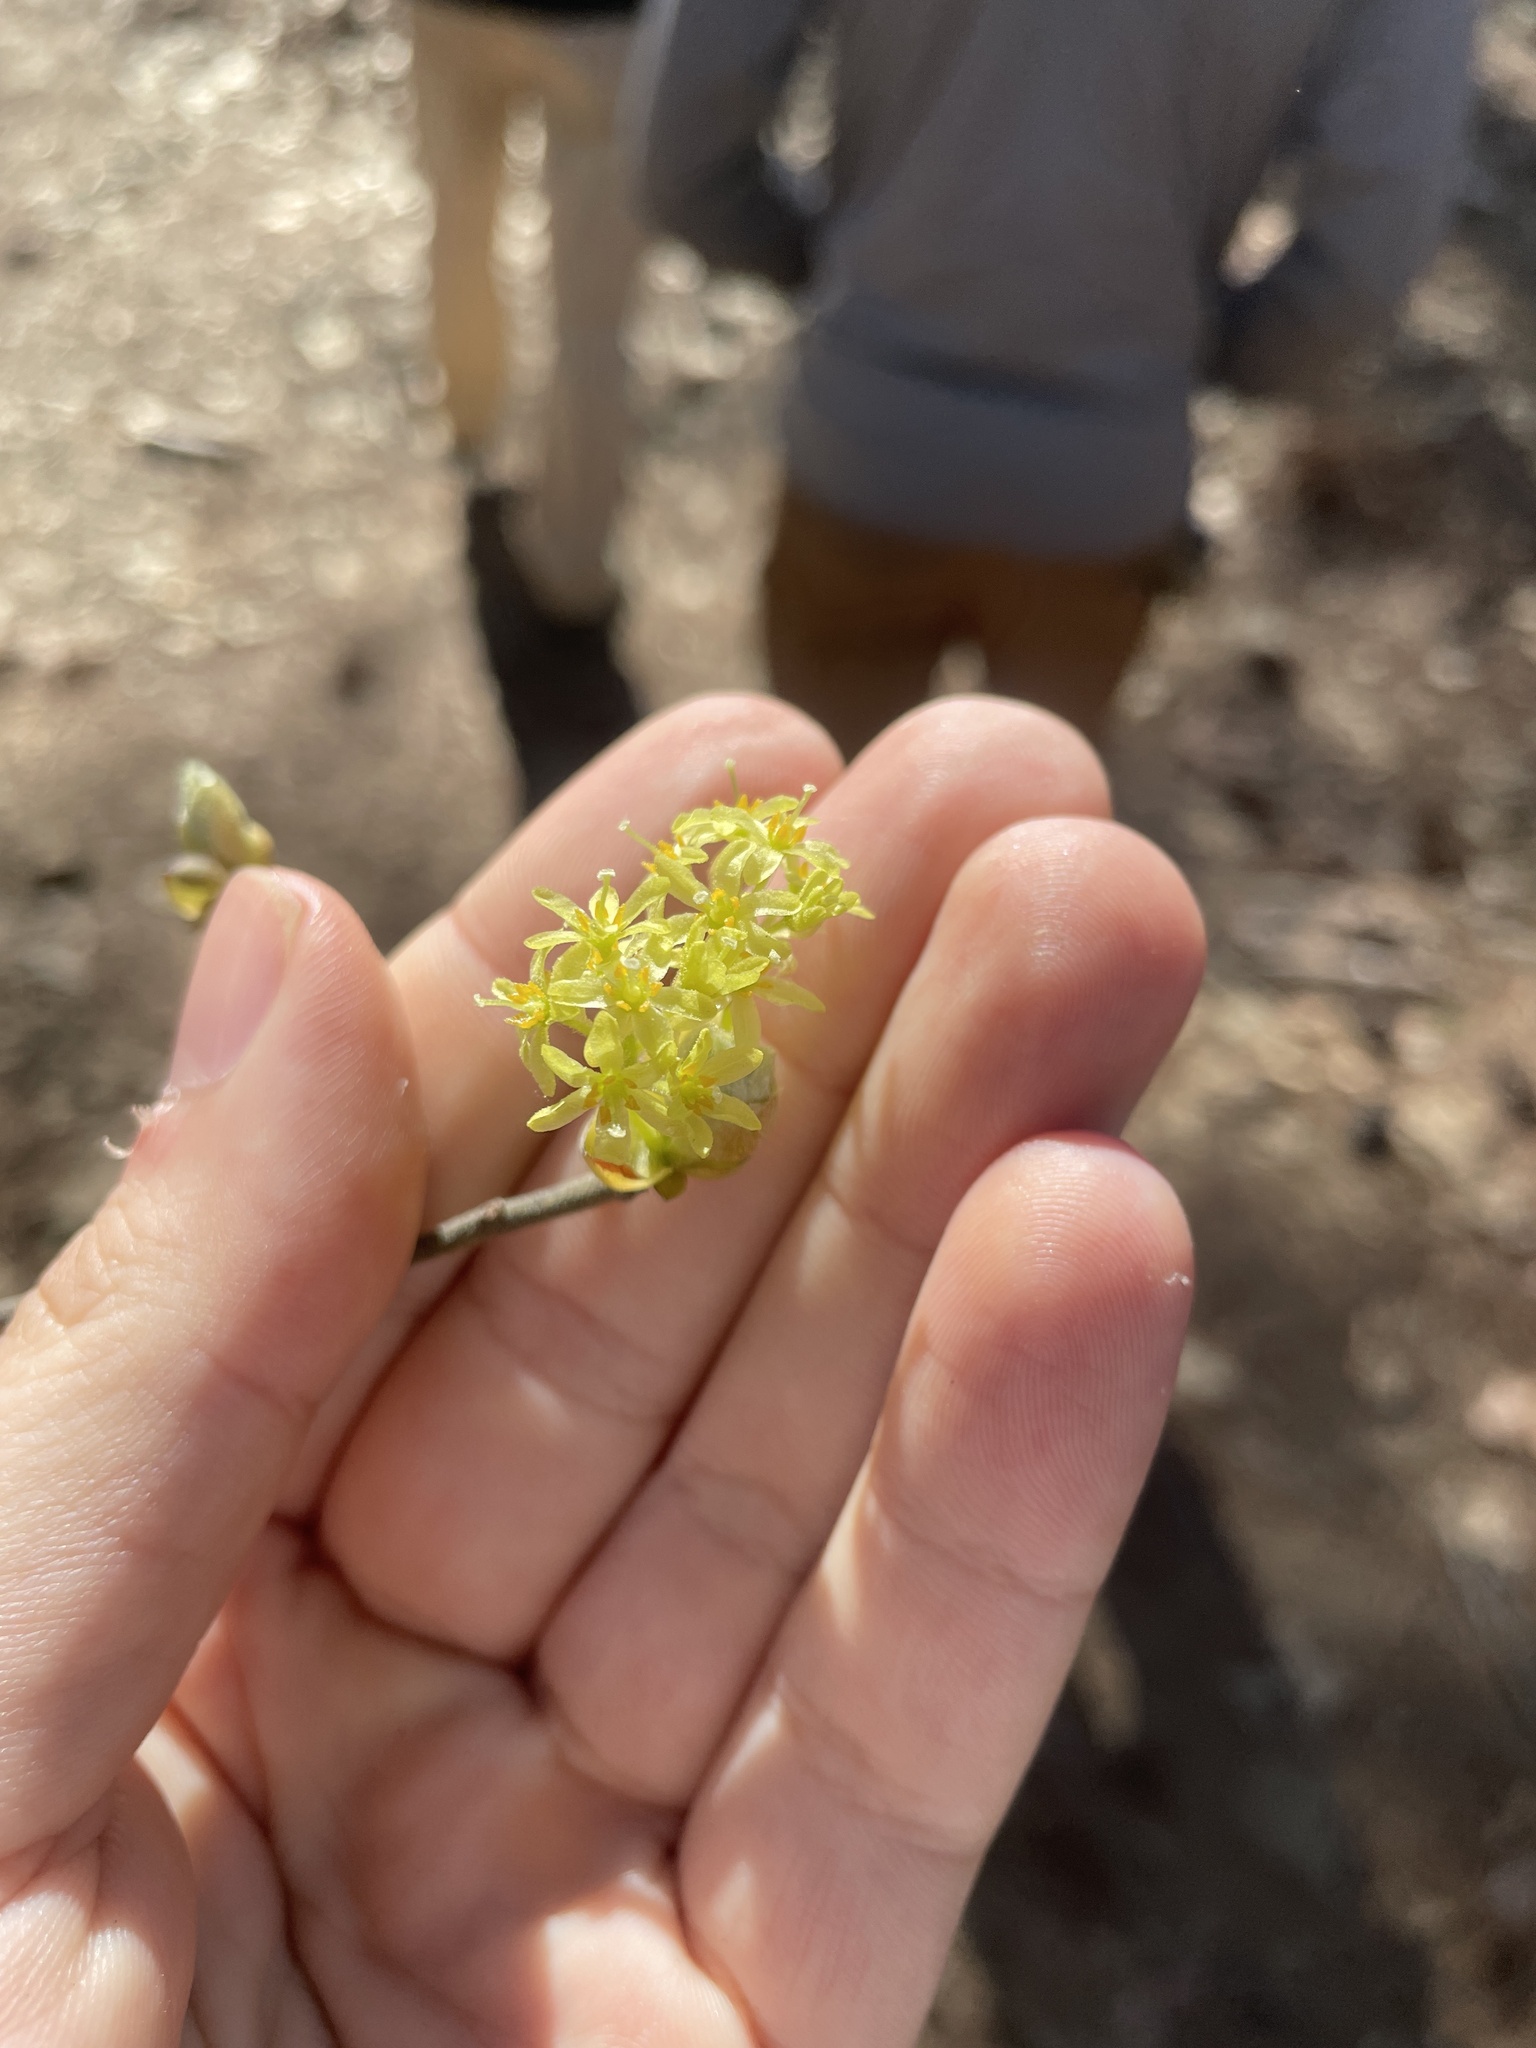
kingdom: Plantae
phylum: Tracheophyta
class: Magnoliopsida
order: Laurales
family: Lauraceae
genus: Sassafras
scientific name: Sassafras albidum
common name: Sassafras
